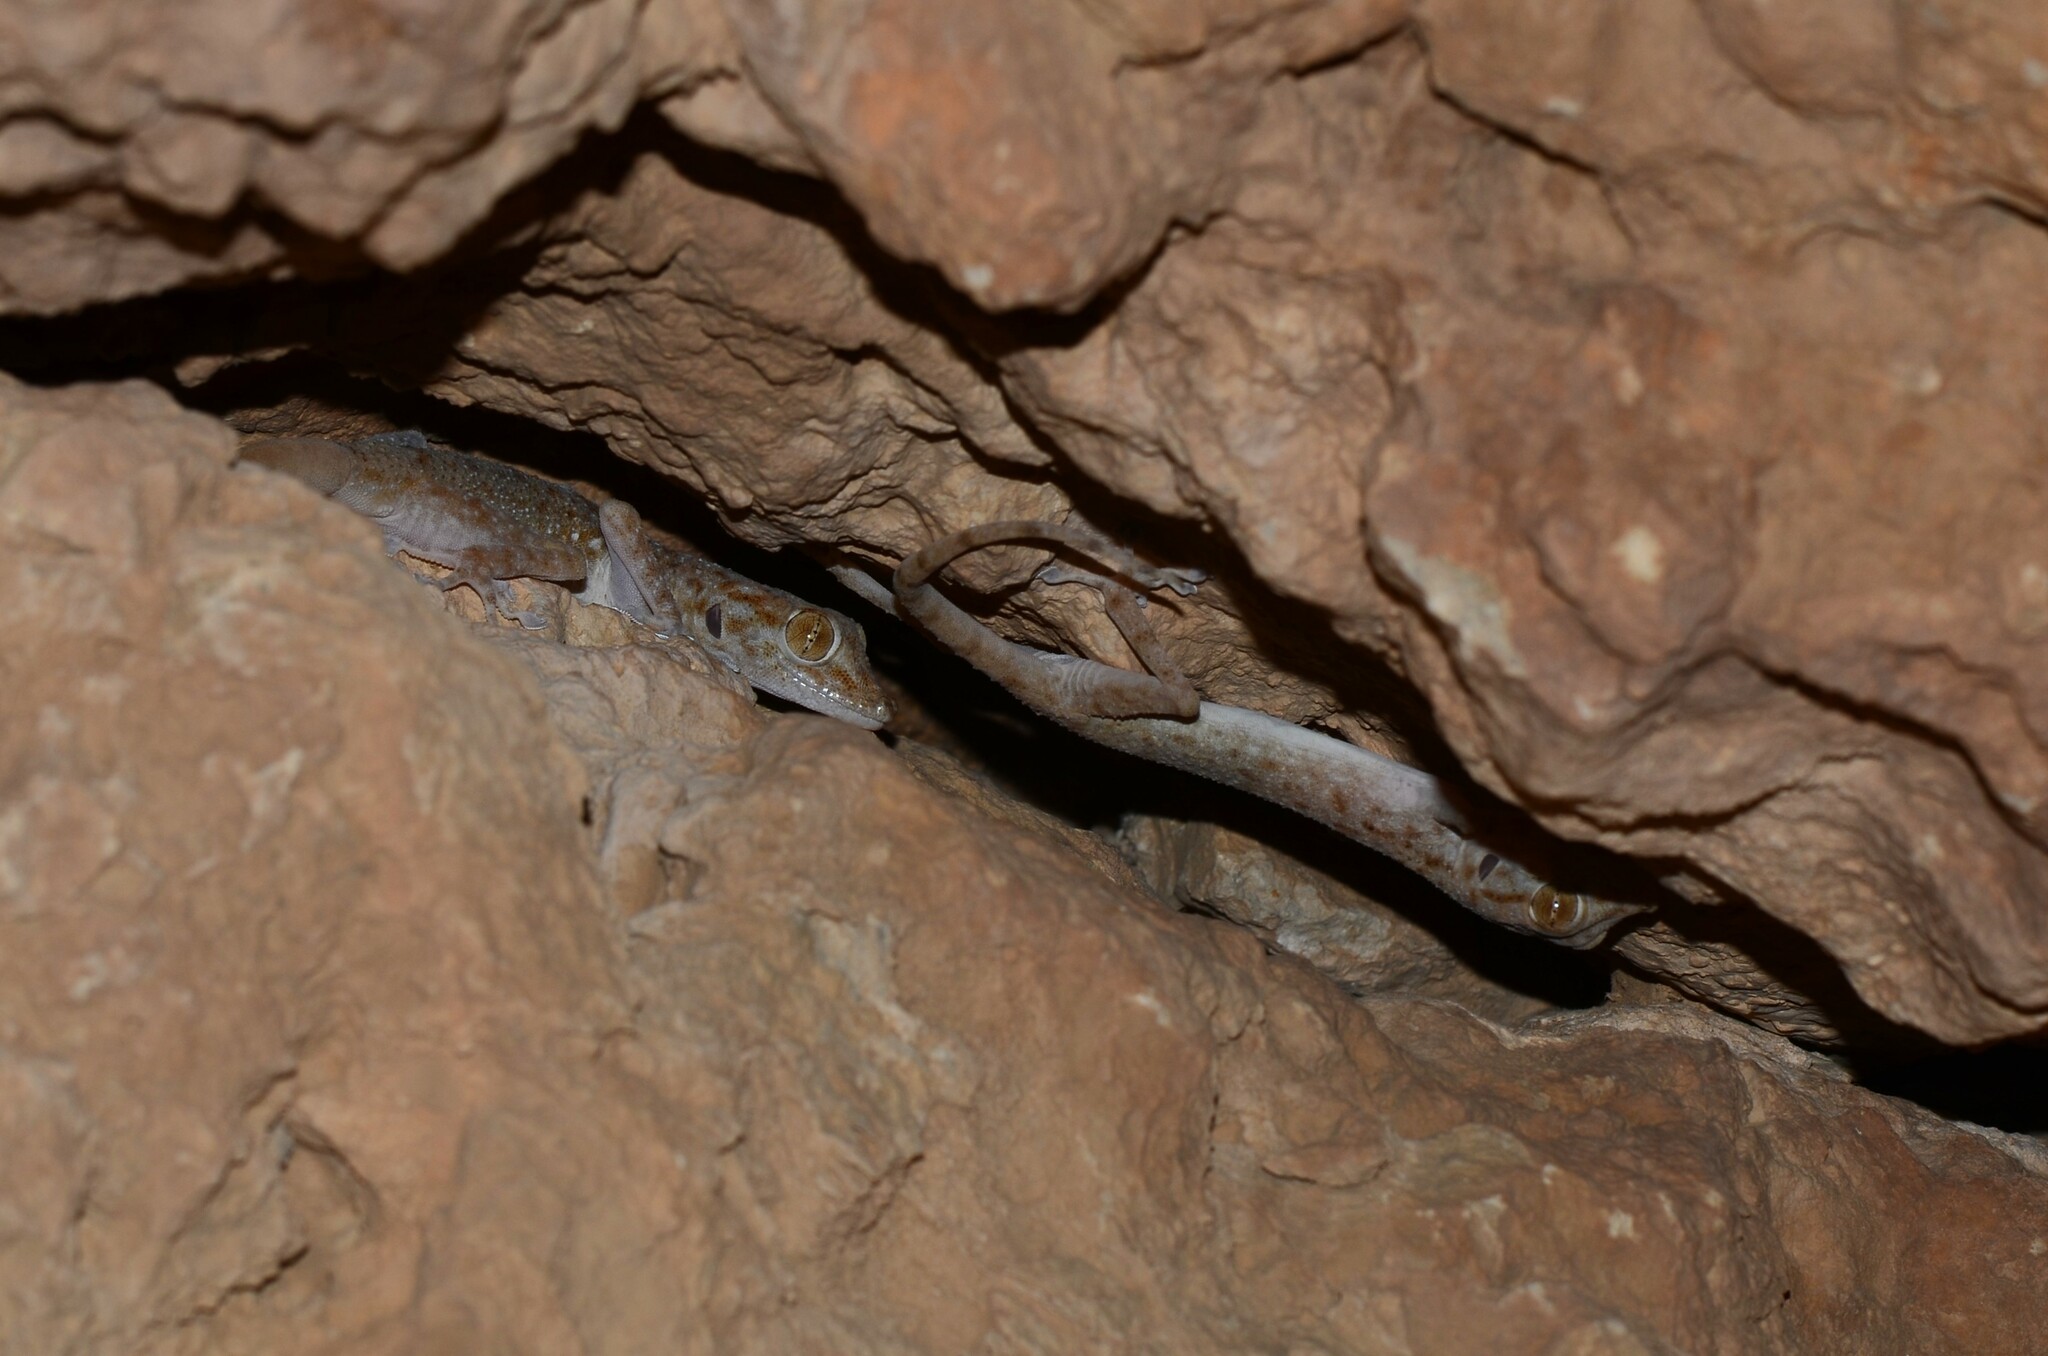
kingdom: Animalia
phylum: Chordata
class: Squamata
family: Phyllodactylidae
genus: Ptyodactylus
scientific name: Ptyodactylus hasselquistii
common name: Hasselquist’s fan-footed gecko
